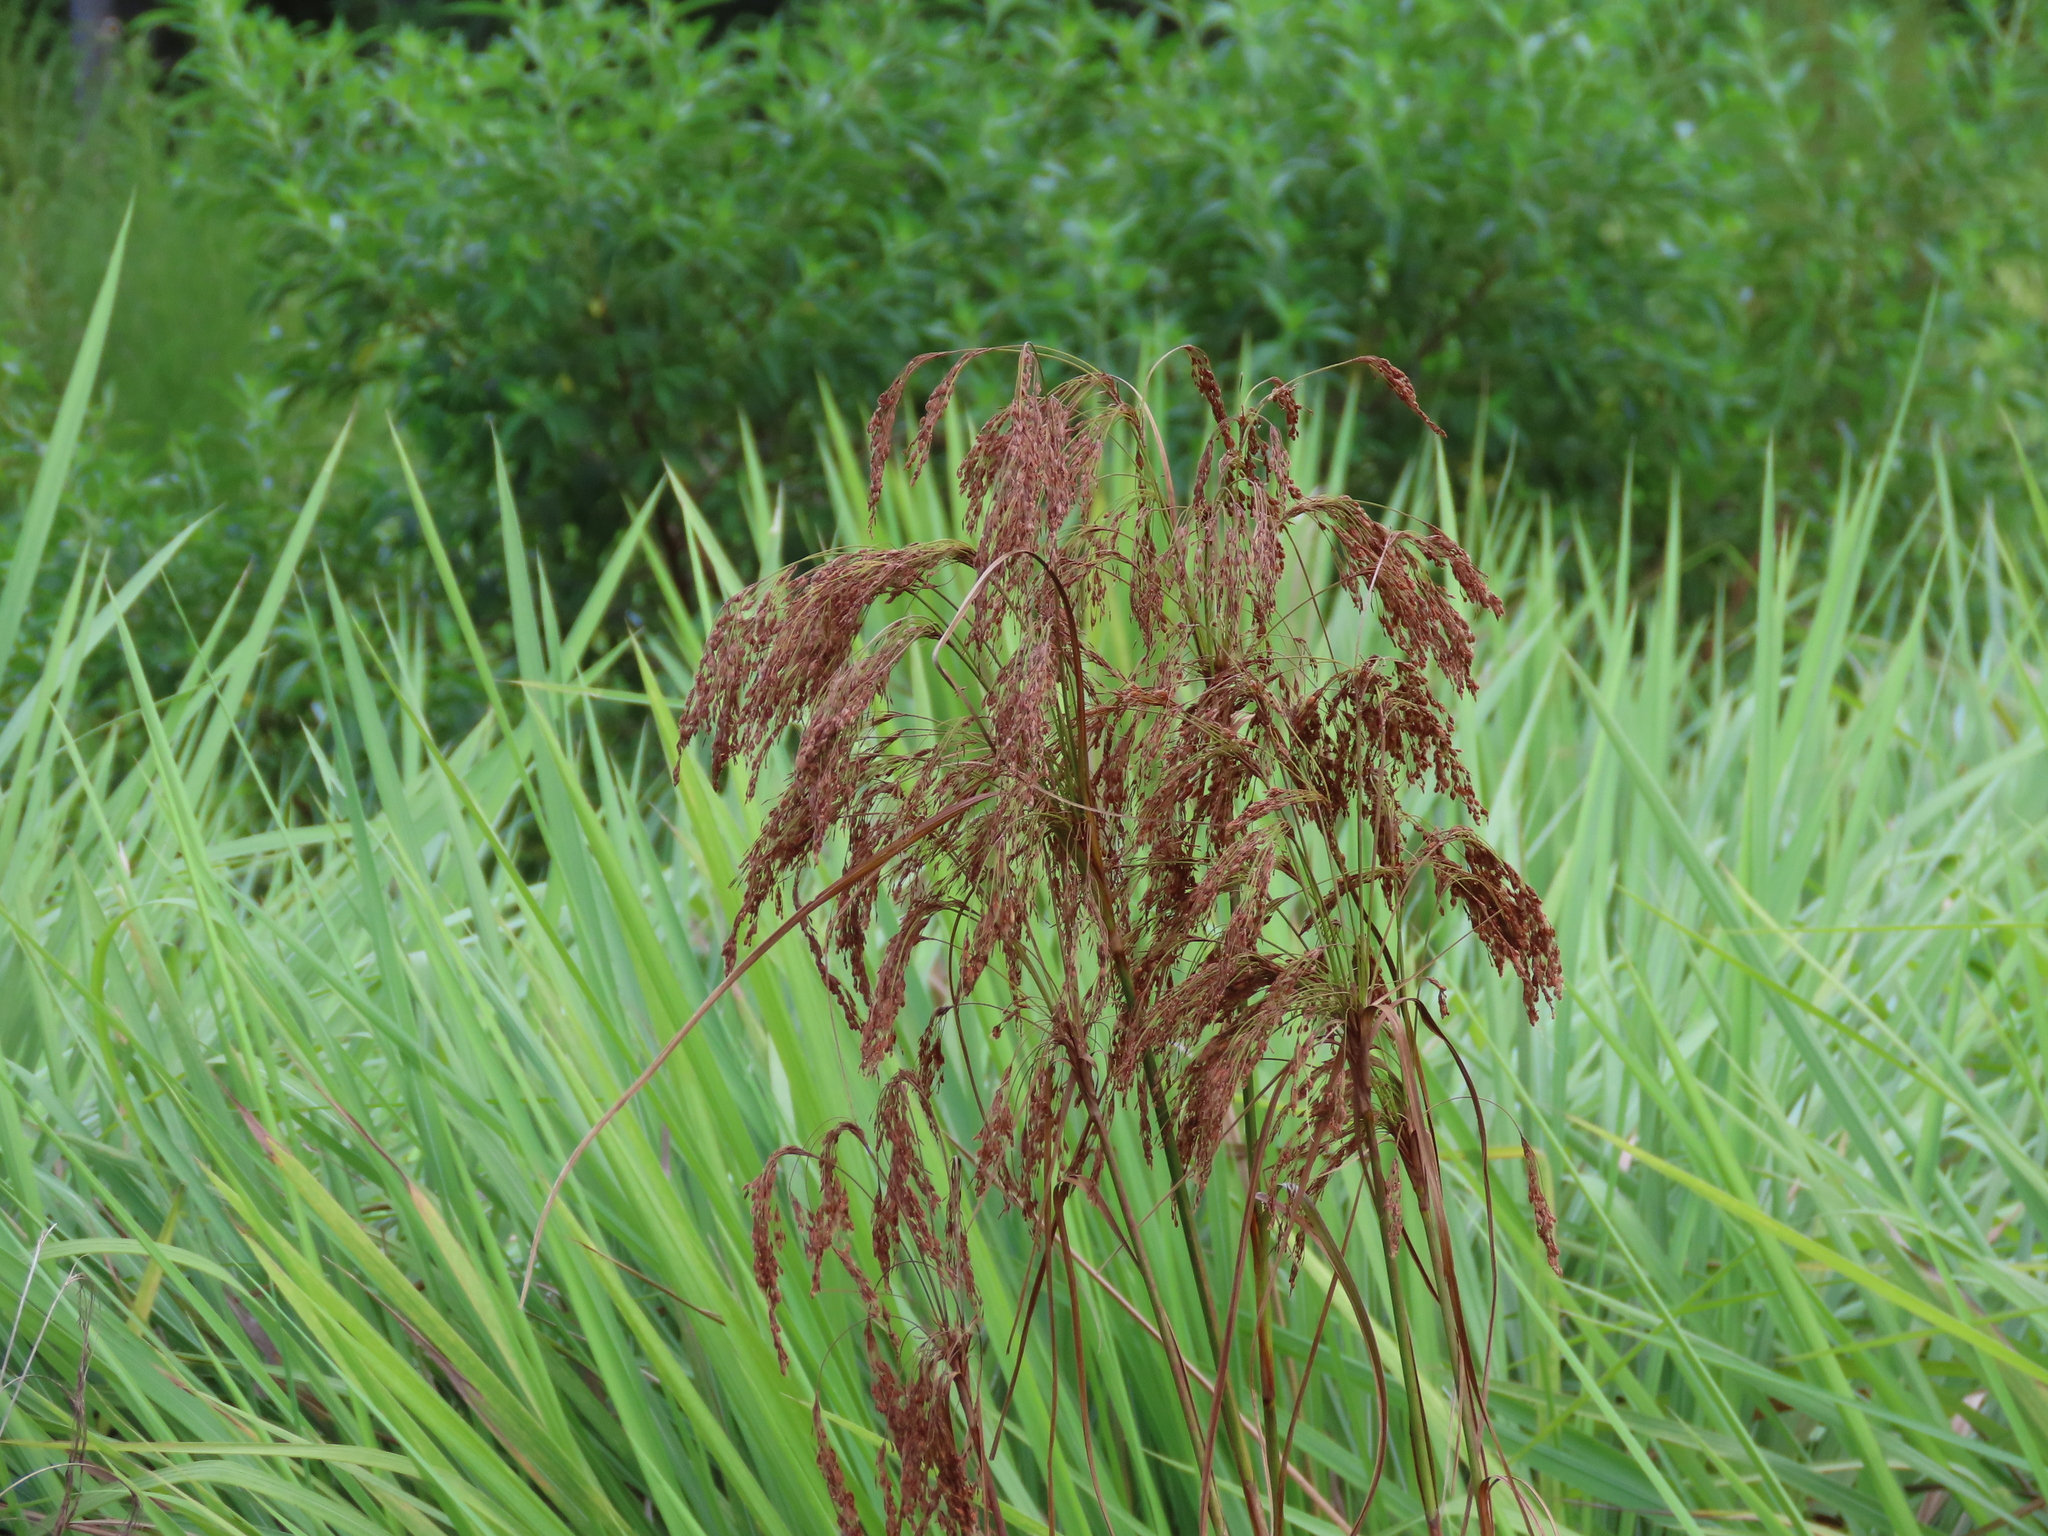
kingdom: Plantae
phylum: Tracheophyta
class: Liliopsida
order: Poales
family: Cyperaceae
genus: Scirpus
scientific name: Scirpus cyperinus
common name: Black-sheathed bulrush
